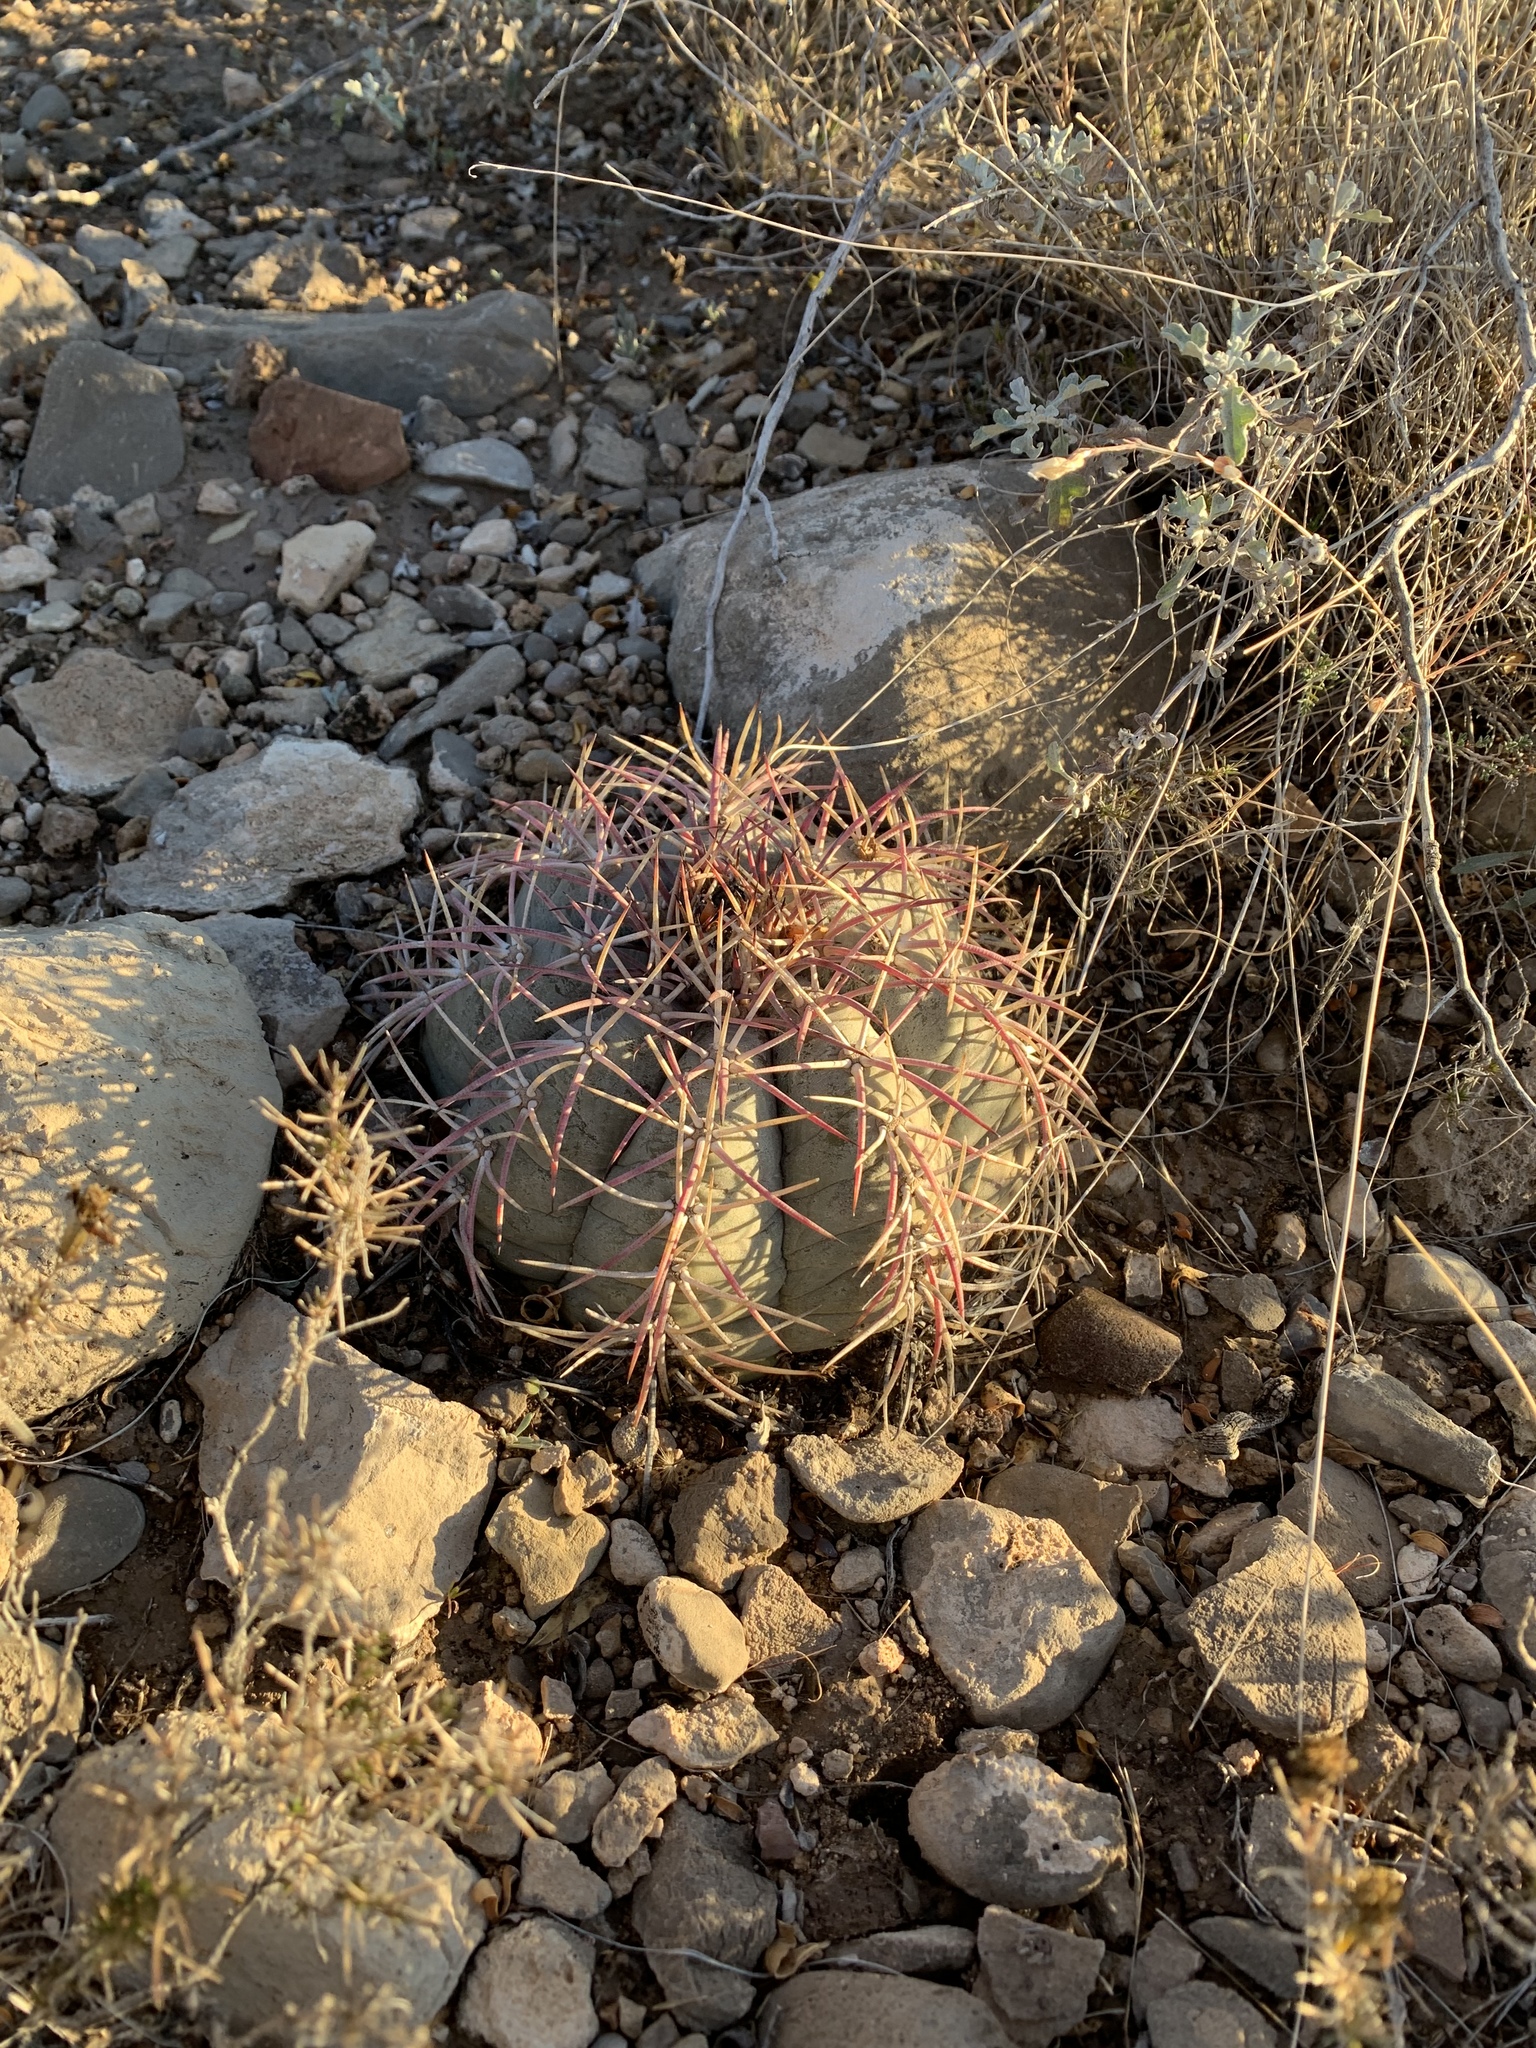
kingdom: Plantae
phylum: Tracheophyta
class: Magnoliopsida
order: Caryophyllales
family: Cactaceae
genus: Echinocactus
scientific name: Echinocactus horizonthalonius
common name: Devilshead
